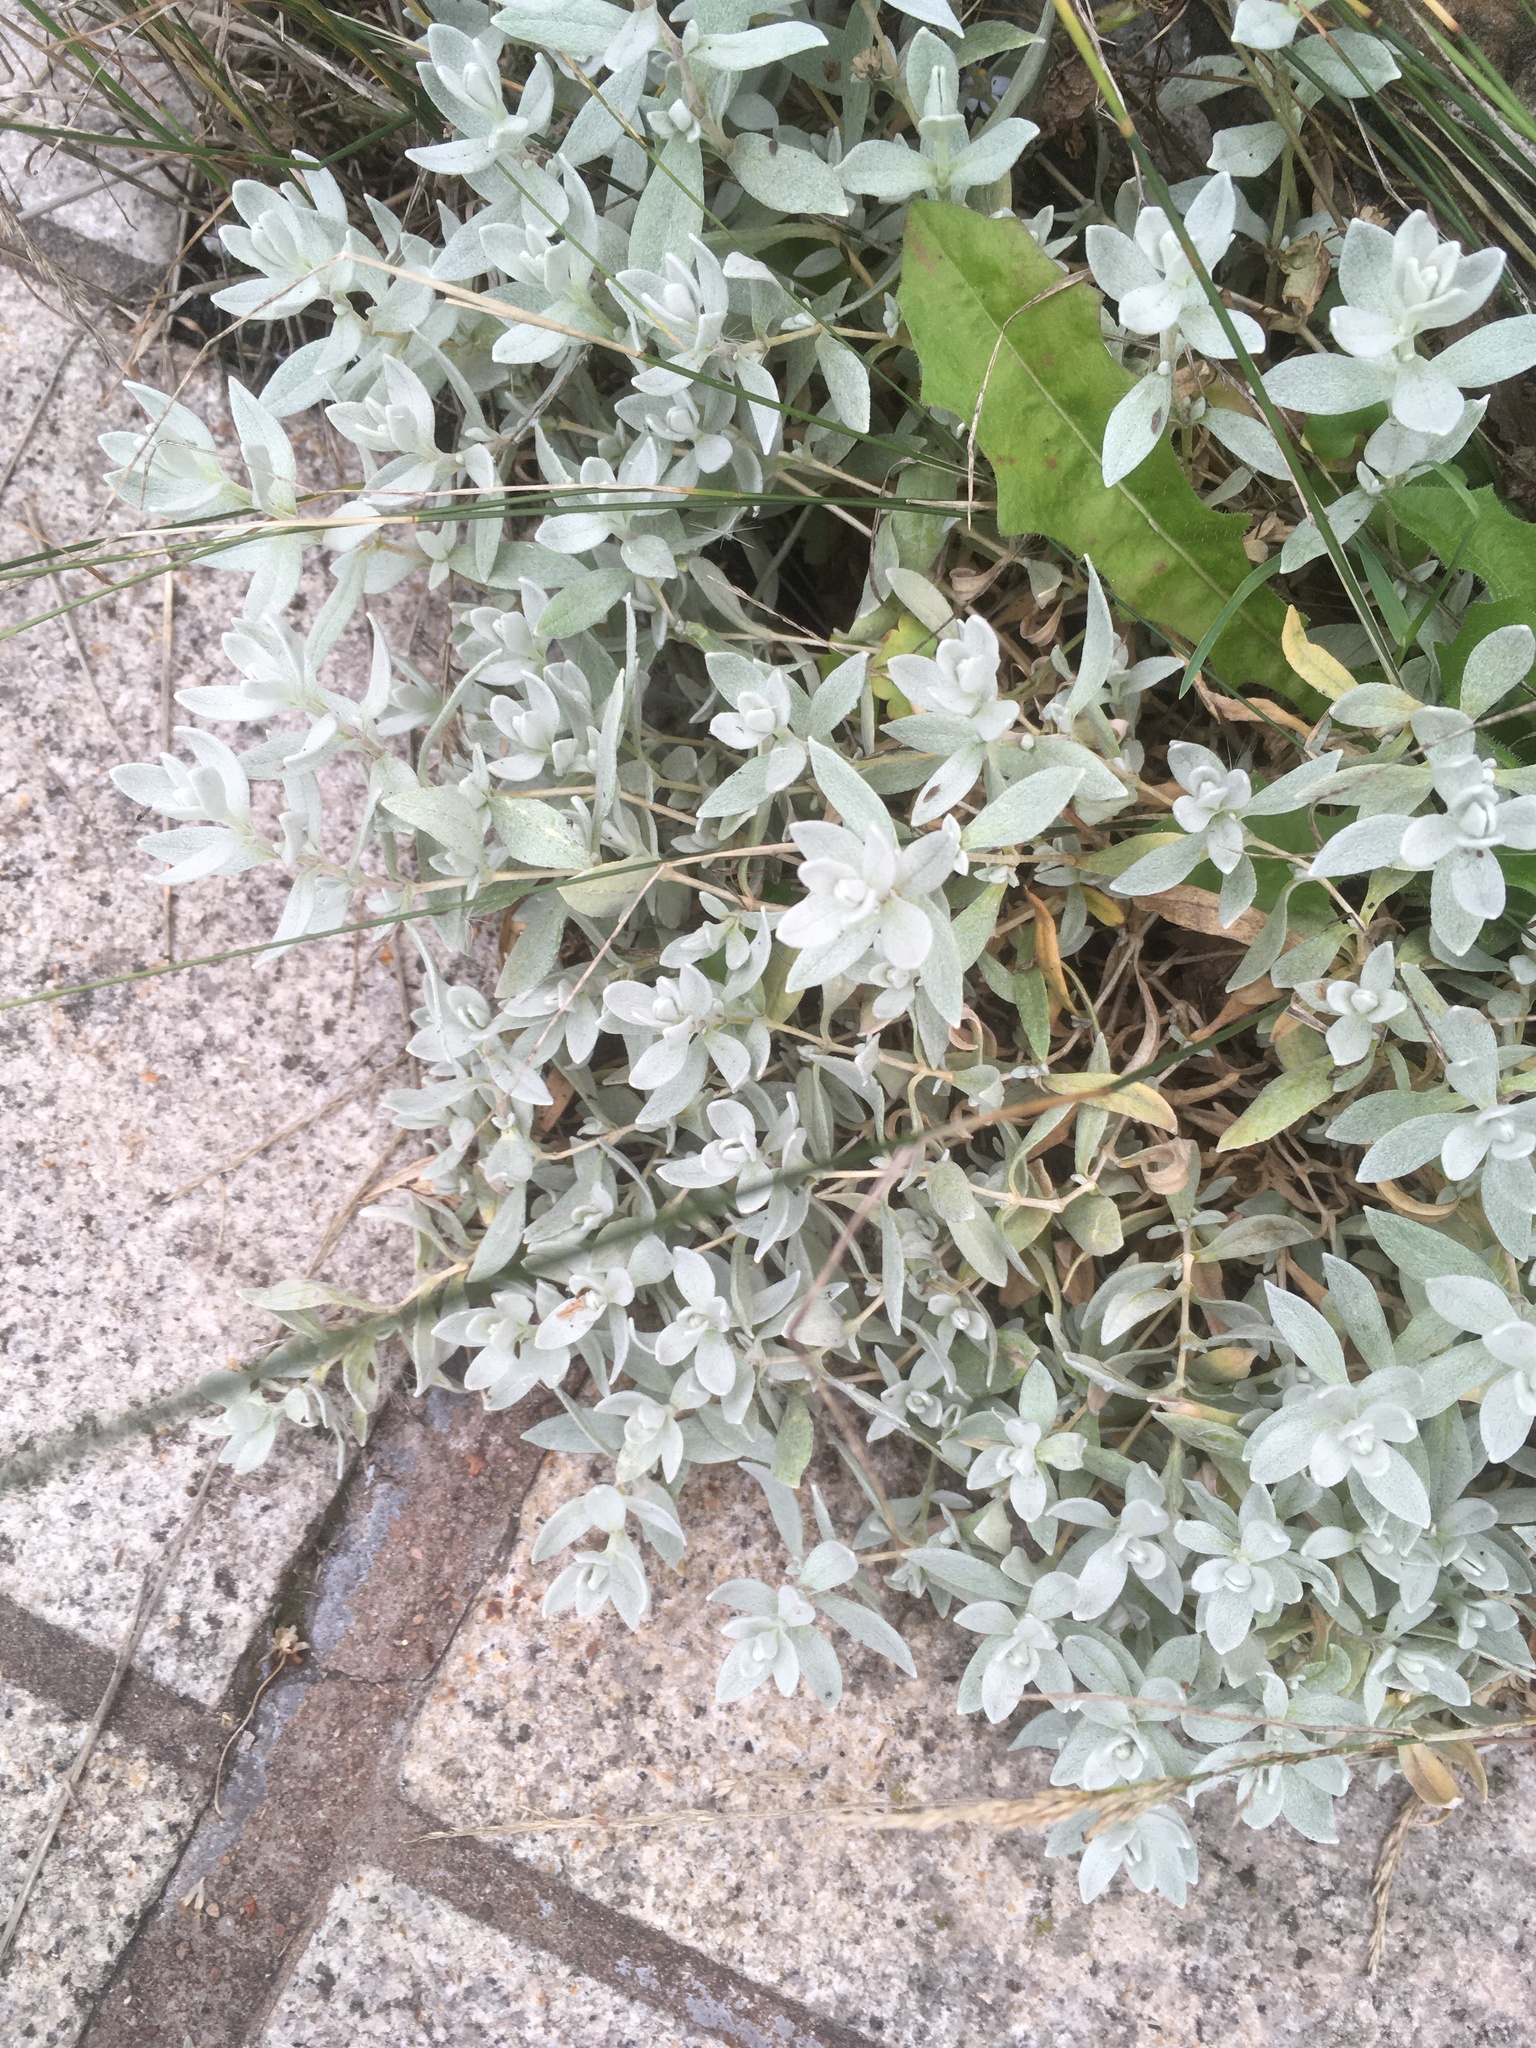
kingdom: Plantae
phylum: Tracheophyta
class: Magnoliopsida
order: Caryophyllales
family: Caryophyllaceae
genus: Cerastium
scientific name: Cerastium tomentosum
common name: Snow-in-summer
